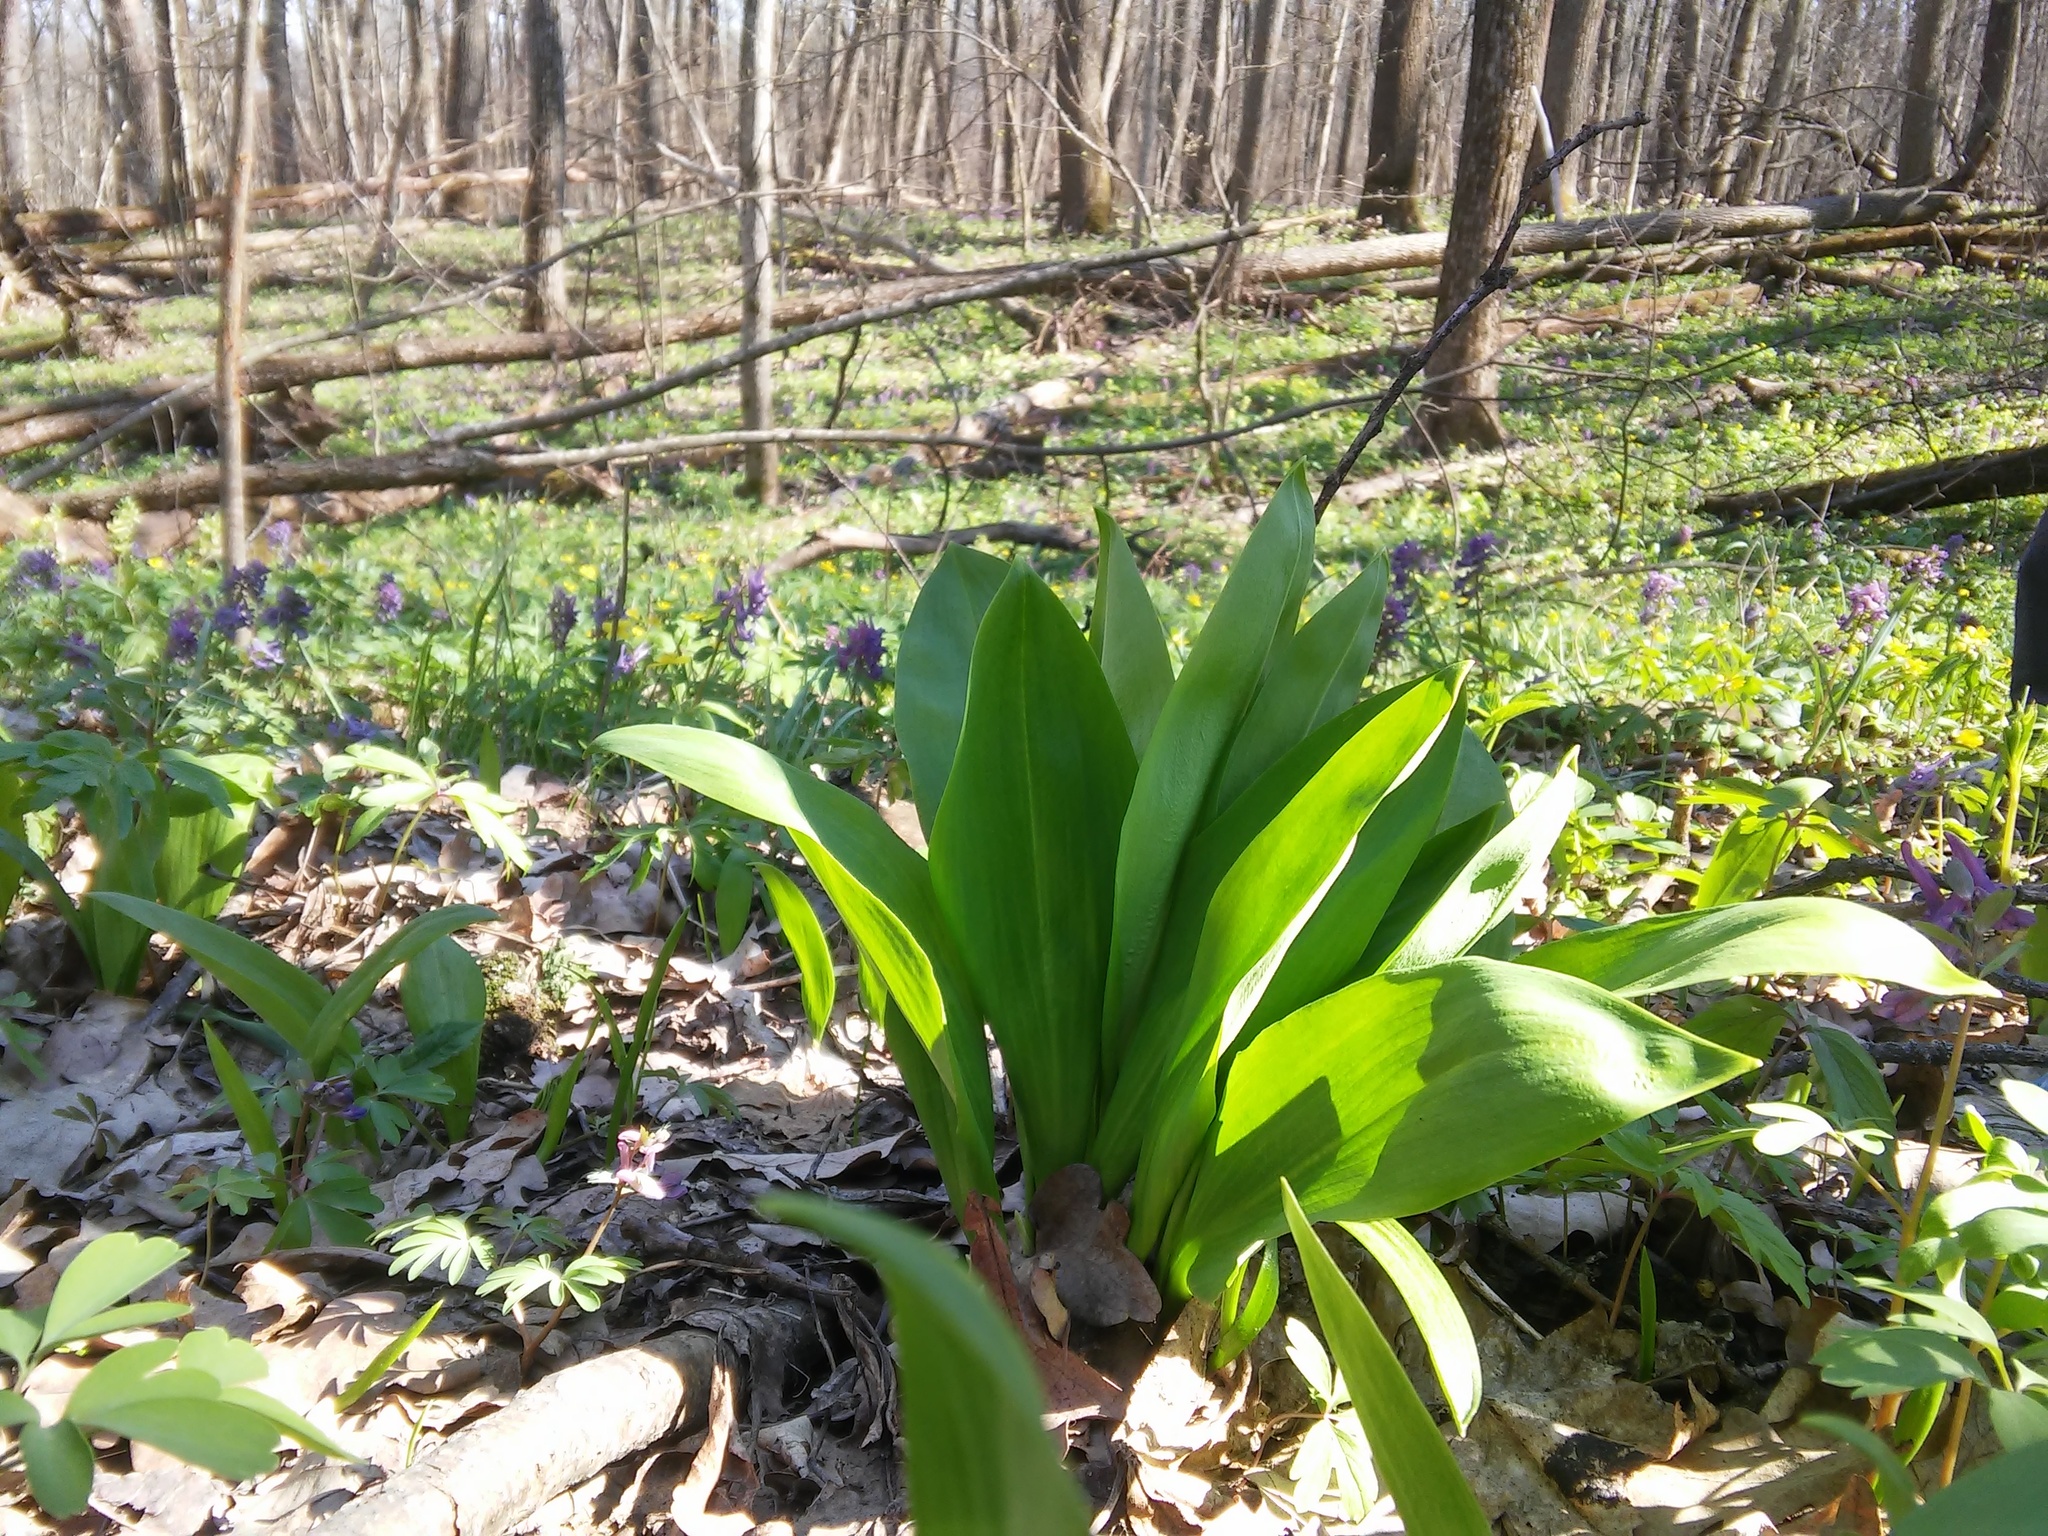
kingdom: Plantae
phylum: Tracheophyta
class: Liliopsida
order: Asparagales
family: Amaryllidaceae
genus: Allium
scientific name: Allium ursinum
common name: Ramsons
